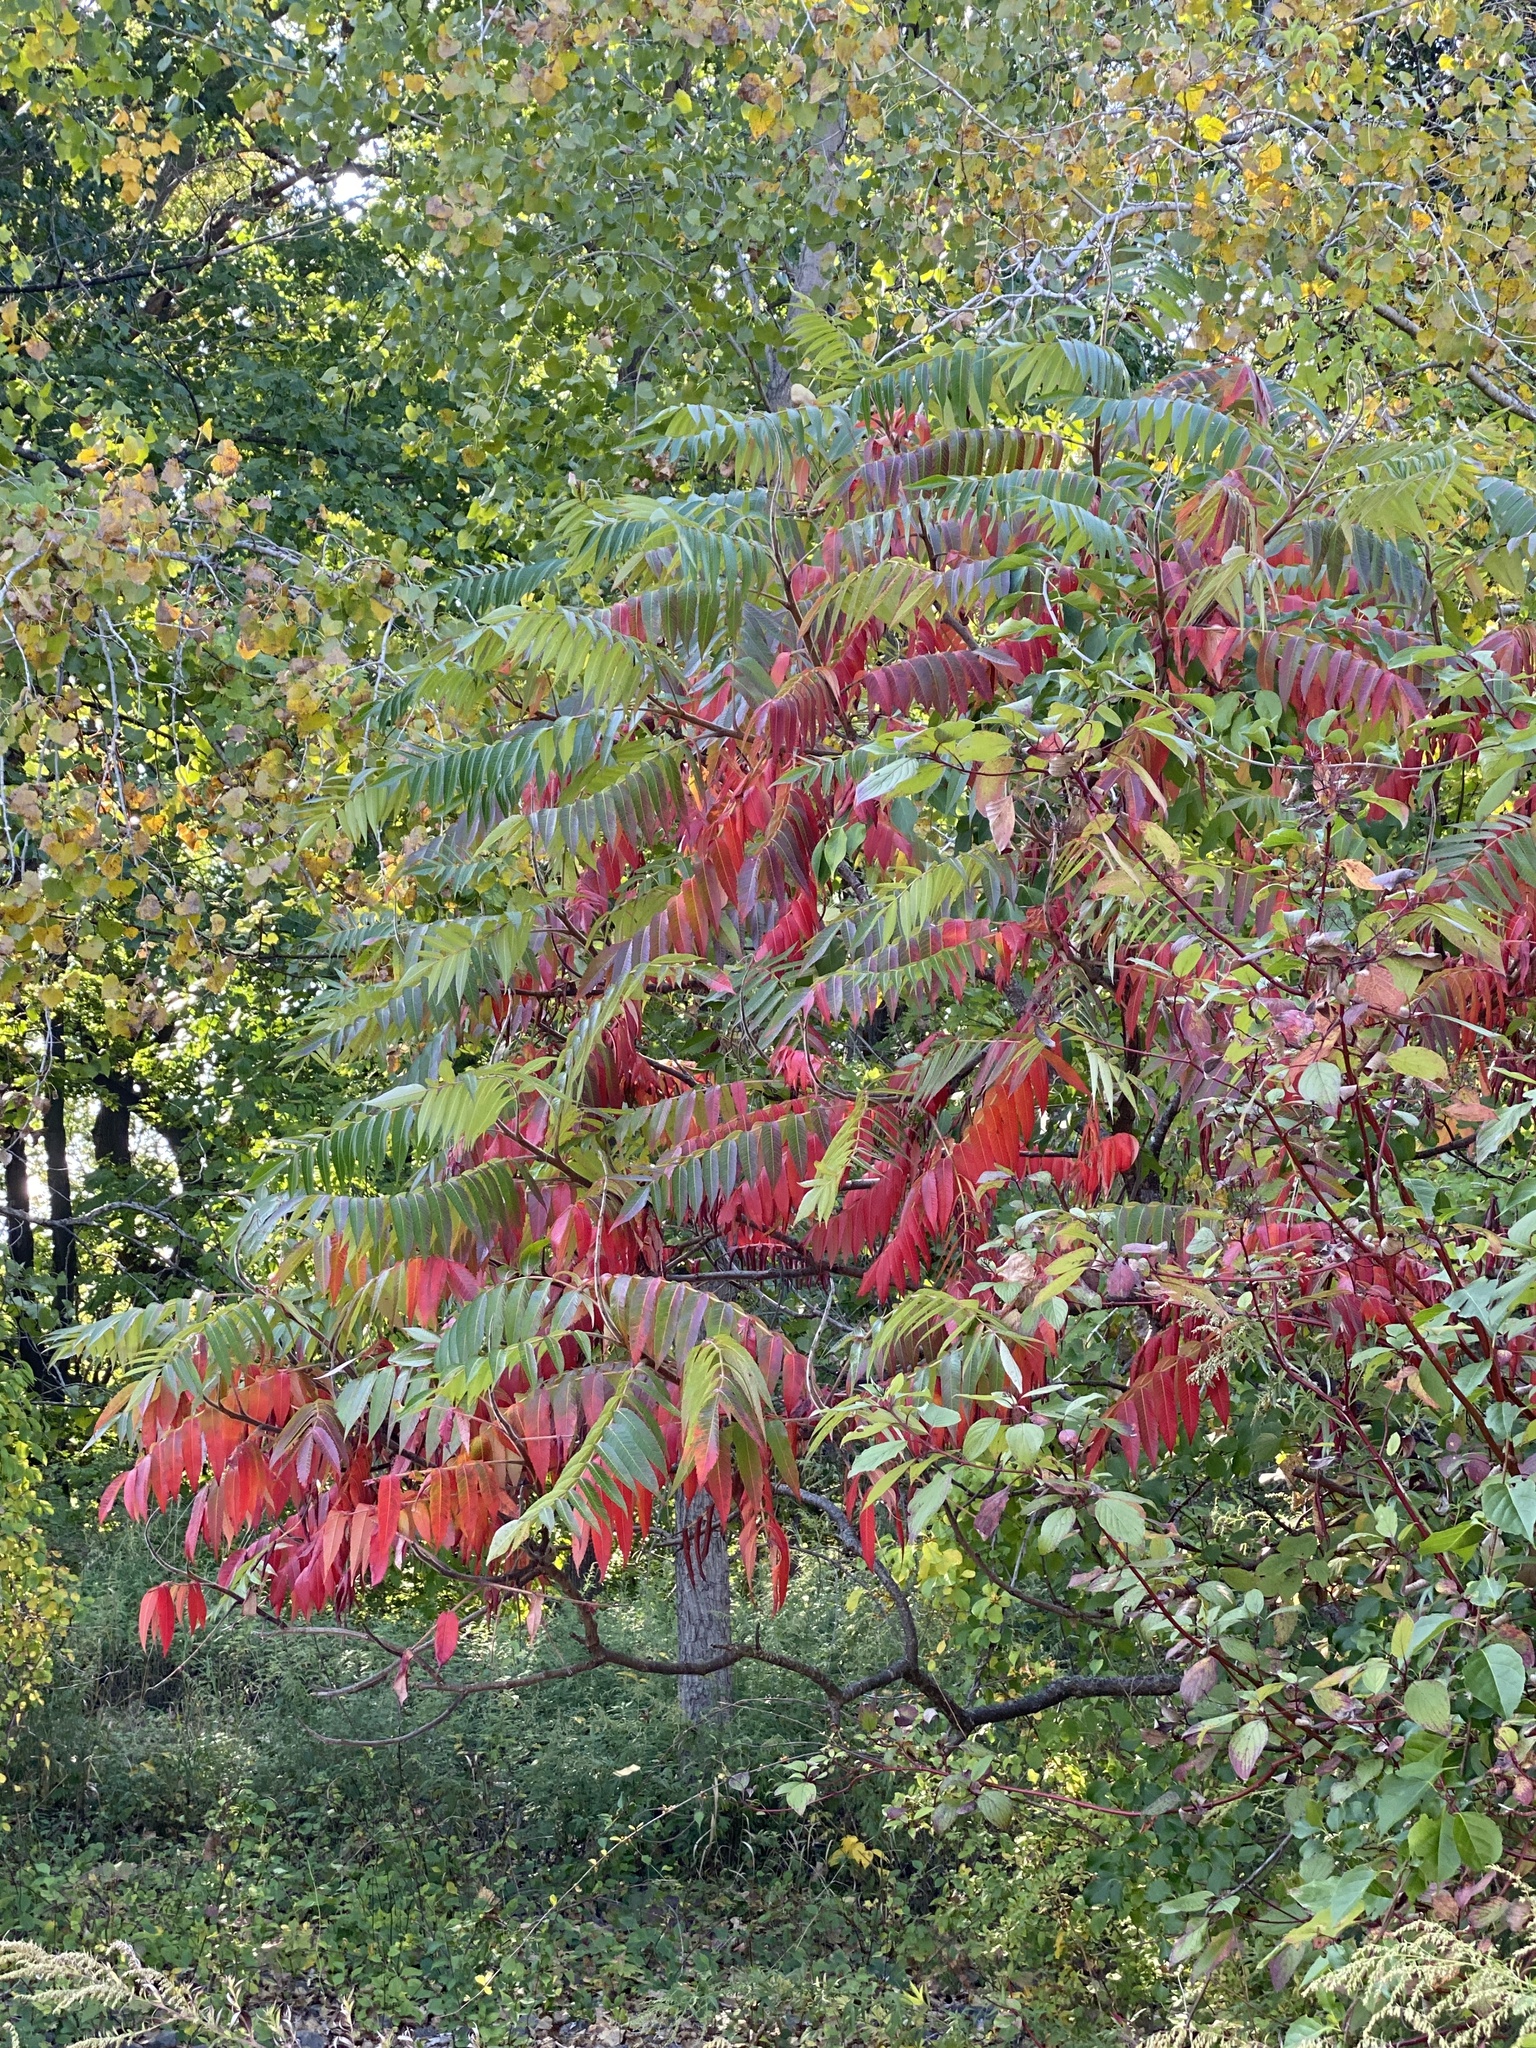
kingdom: Plantae
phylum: Tracheophyta
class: Magnoliopsida
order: Sapindales
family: Anacardiaceae
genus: Rhus
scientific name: Rhus typhina
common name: Staghorn sumac
